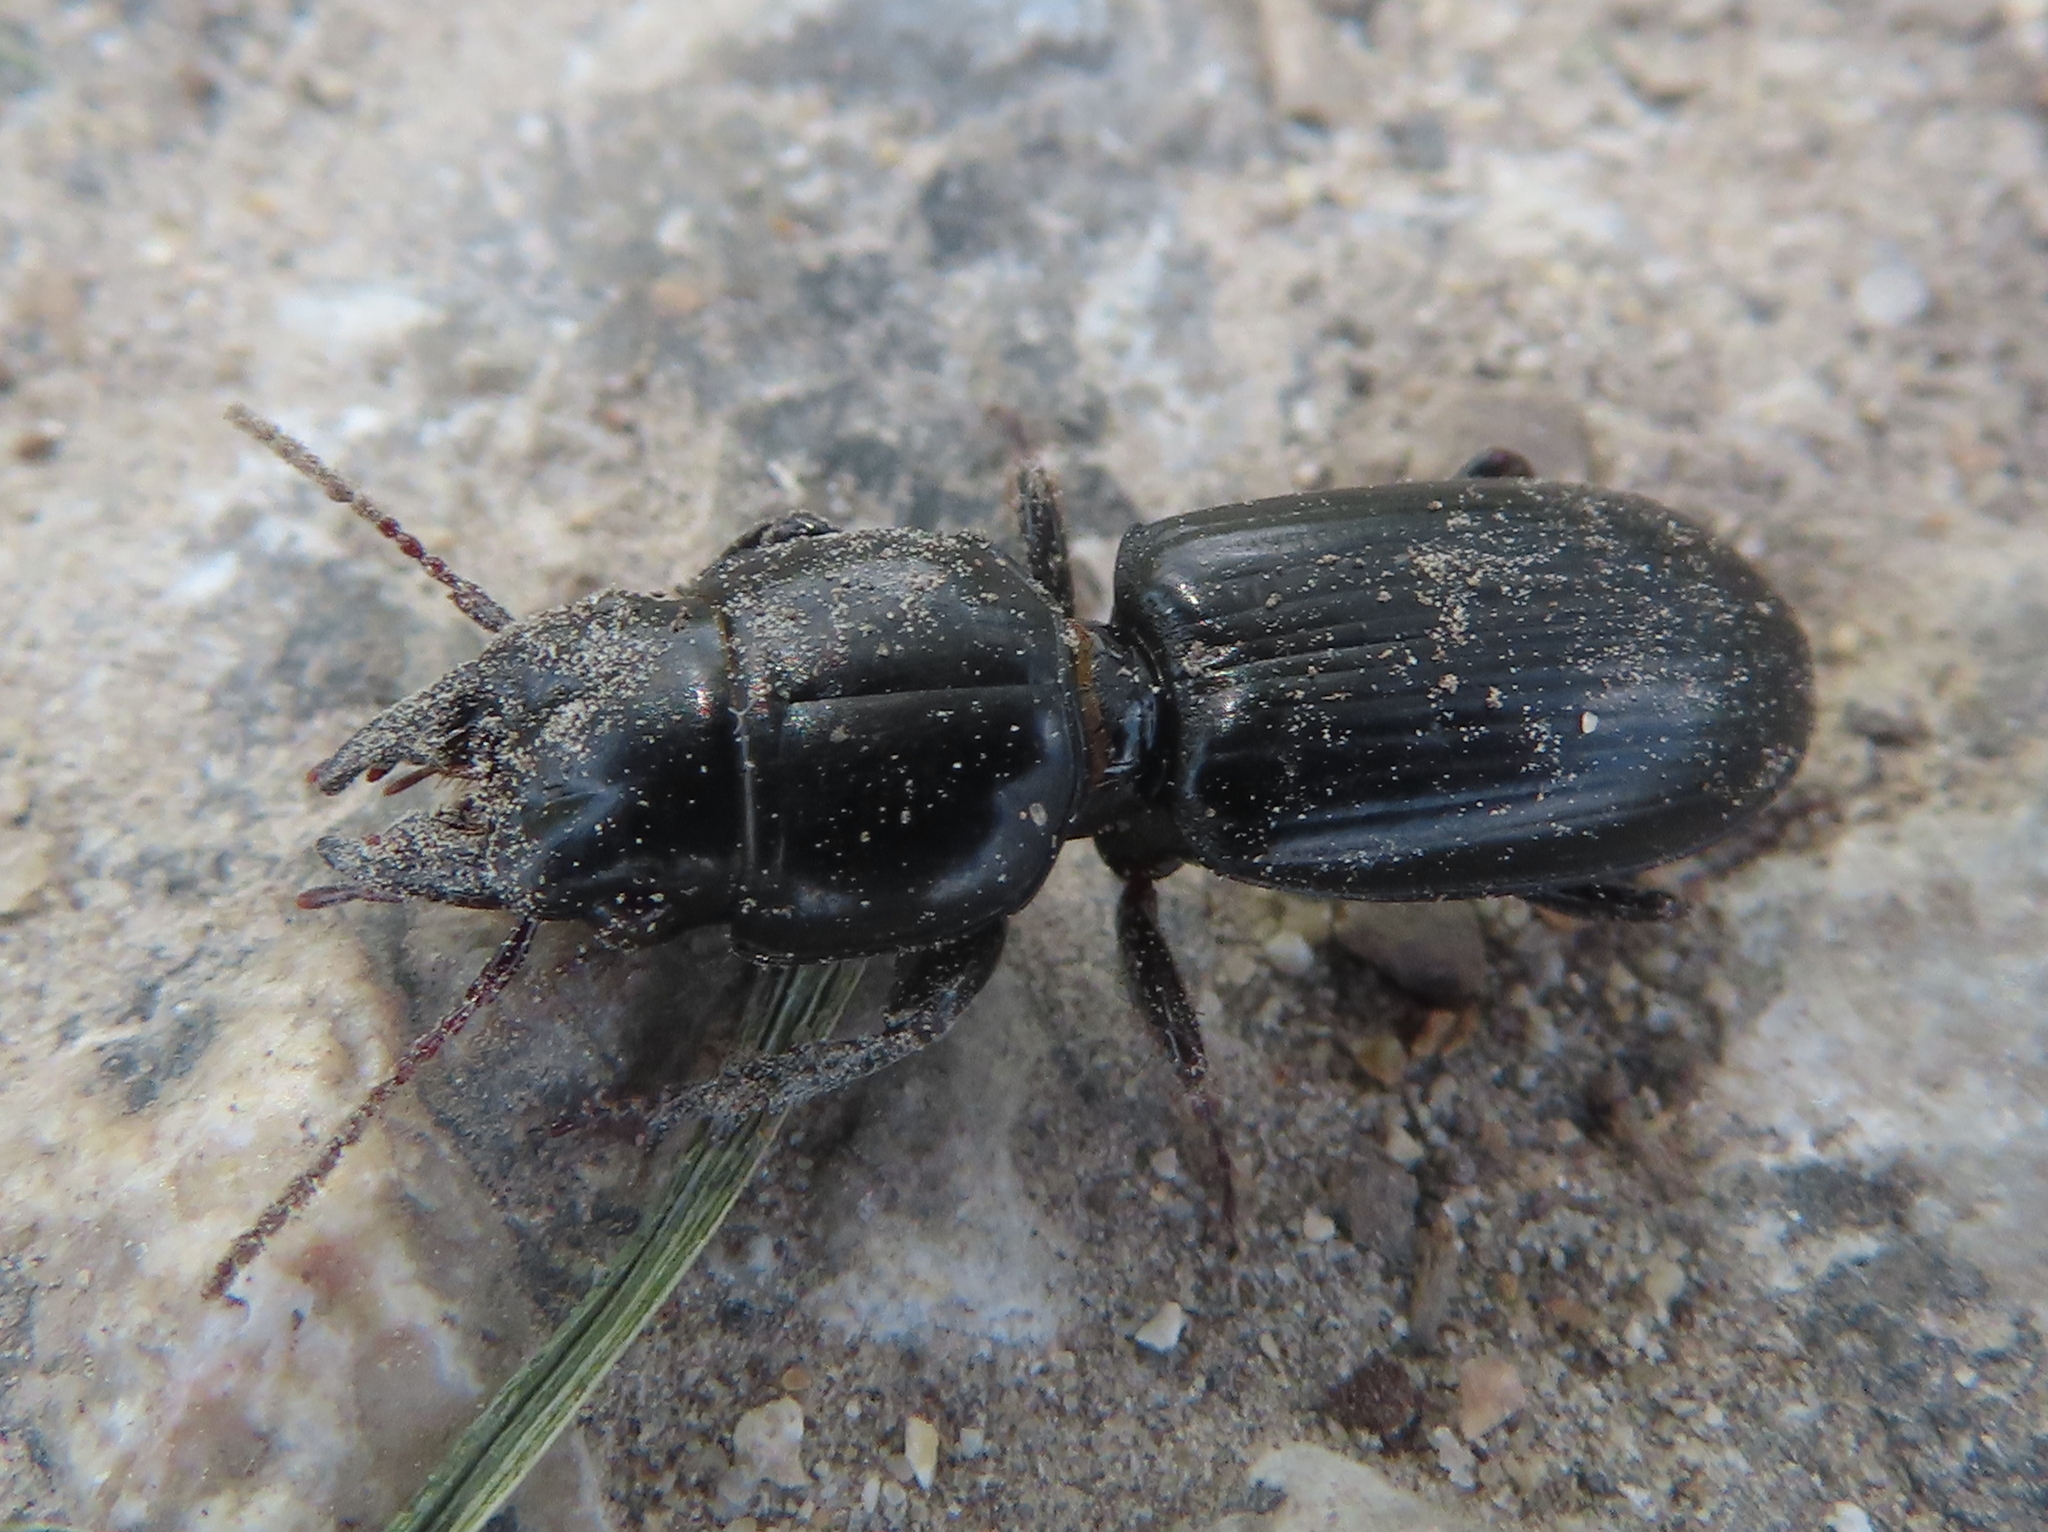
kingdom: Animalia
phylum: Arthropoda
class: Insecta
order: Coleoptera
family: Carabidae
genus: Scarites
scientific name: Scarites subterraneus
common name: Big-headed ground beetle
